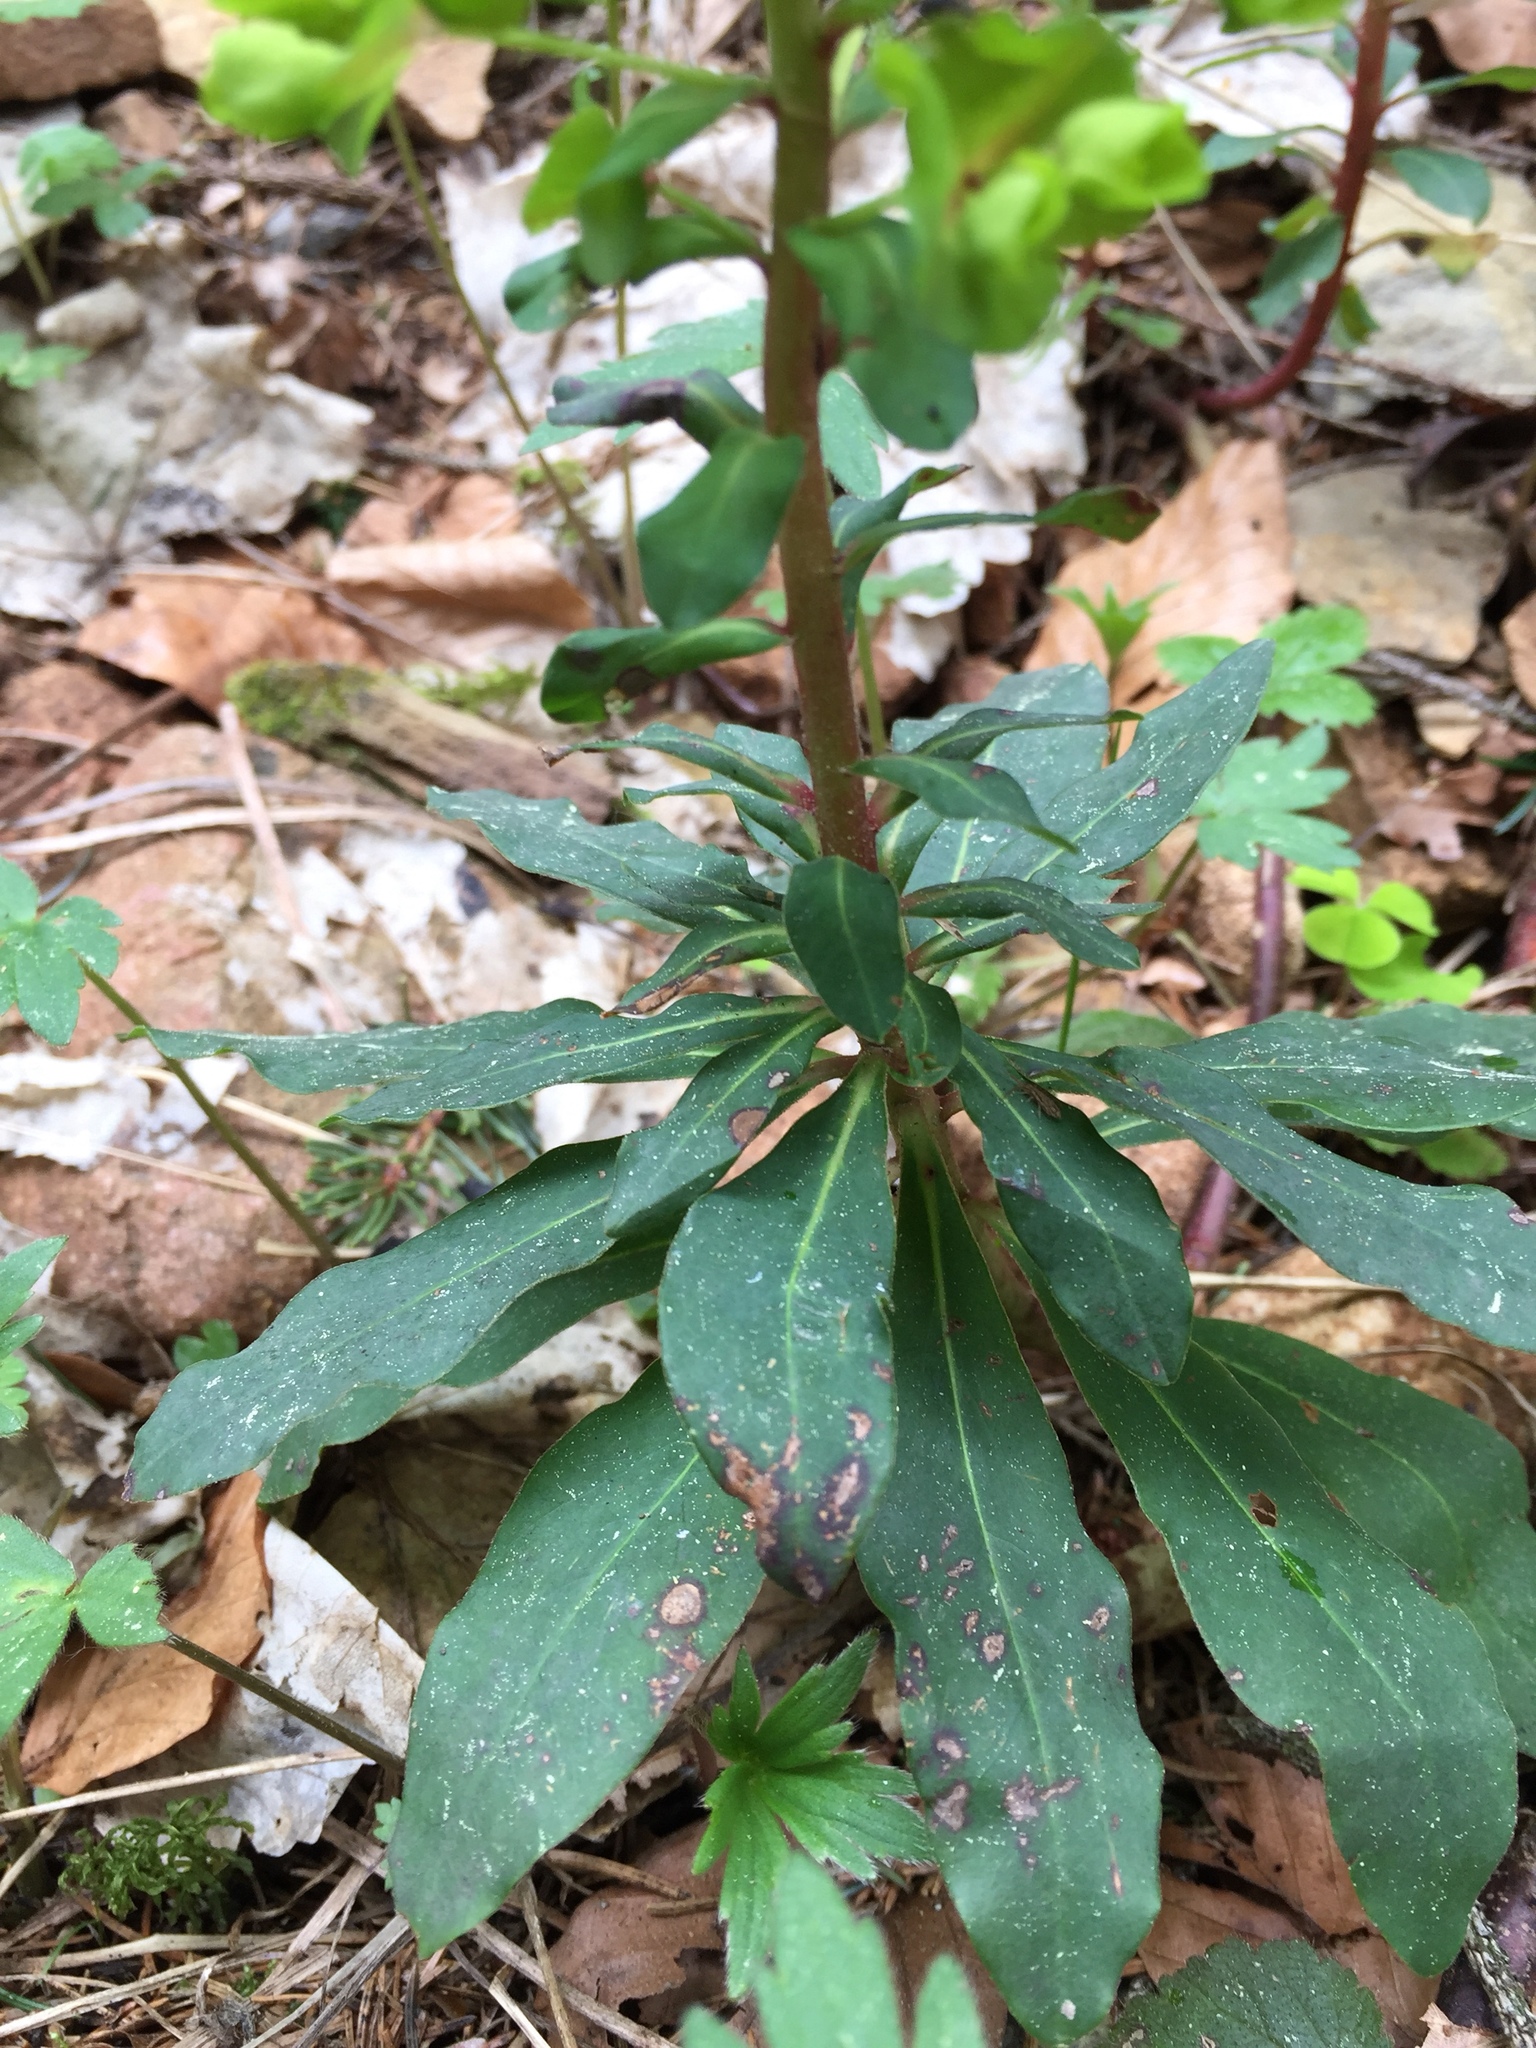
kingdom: Plantae
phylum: Tracheophyta
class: Magnoliopsida
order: Malpighiales
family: Euphorbiaceae
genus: Euphorbia
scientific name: Euphorbia amygdaloides
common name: Wood spurge
